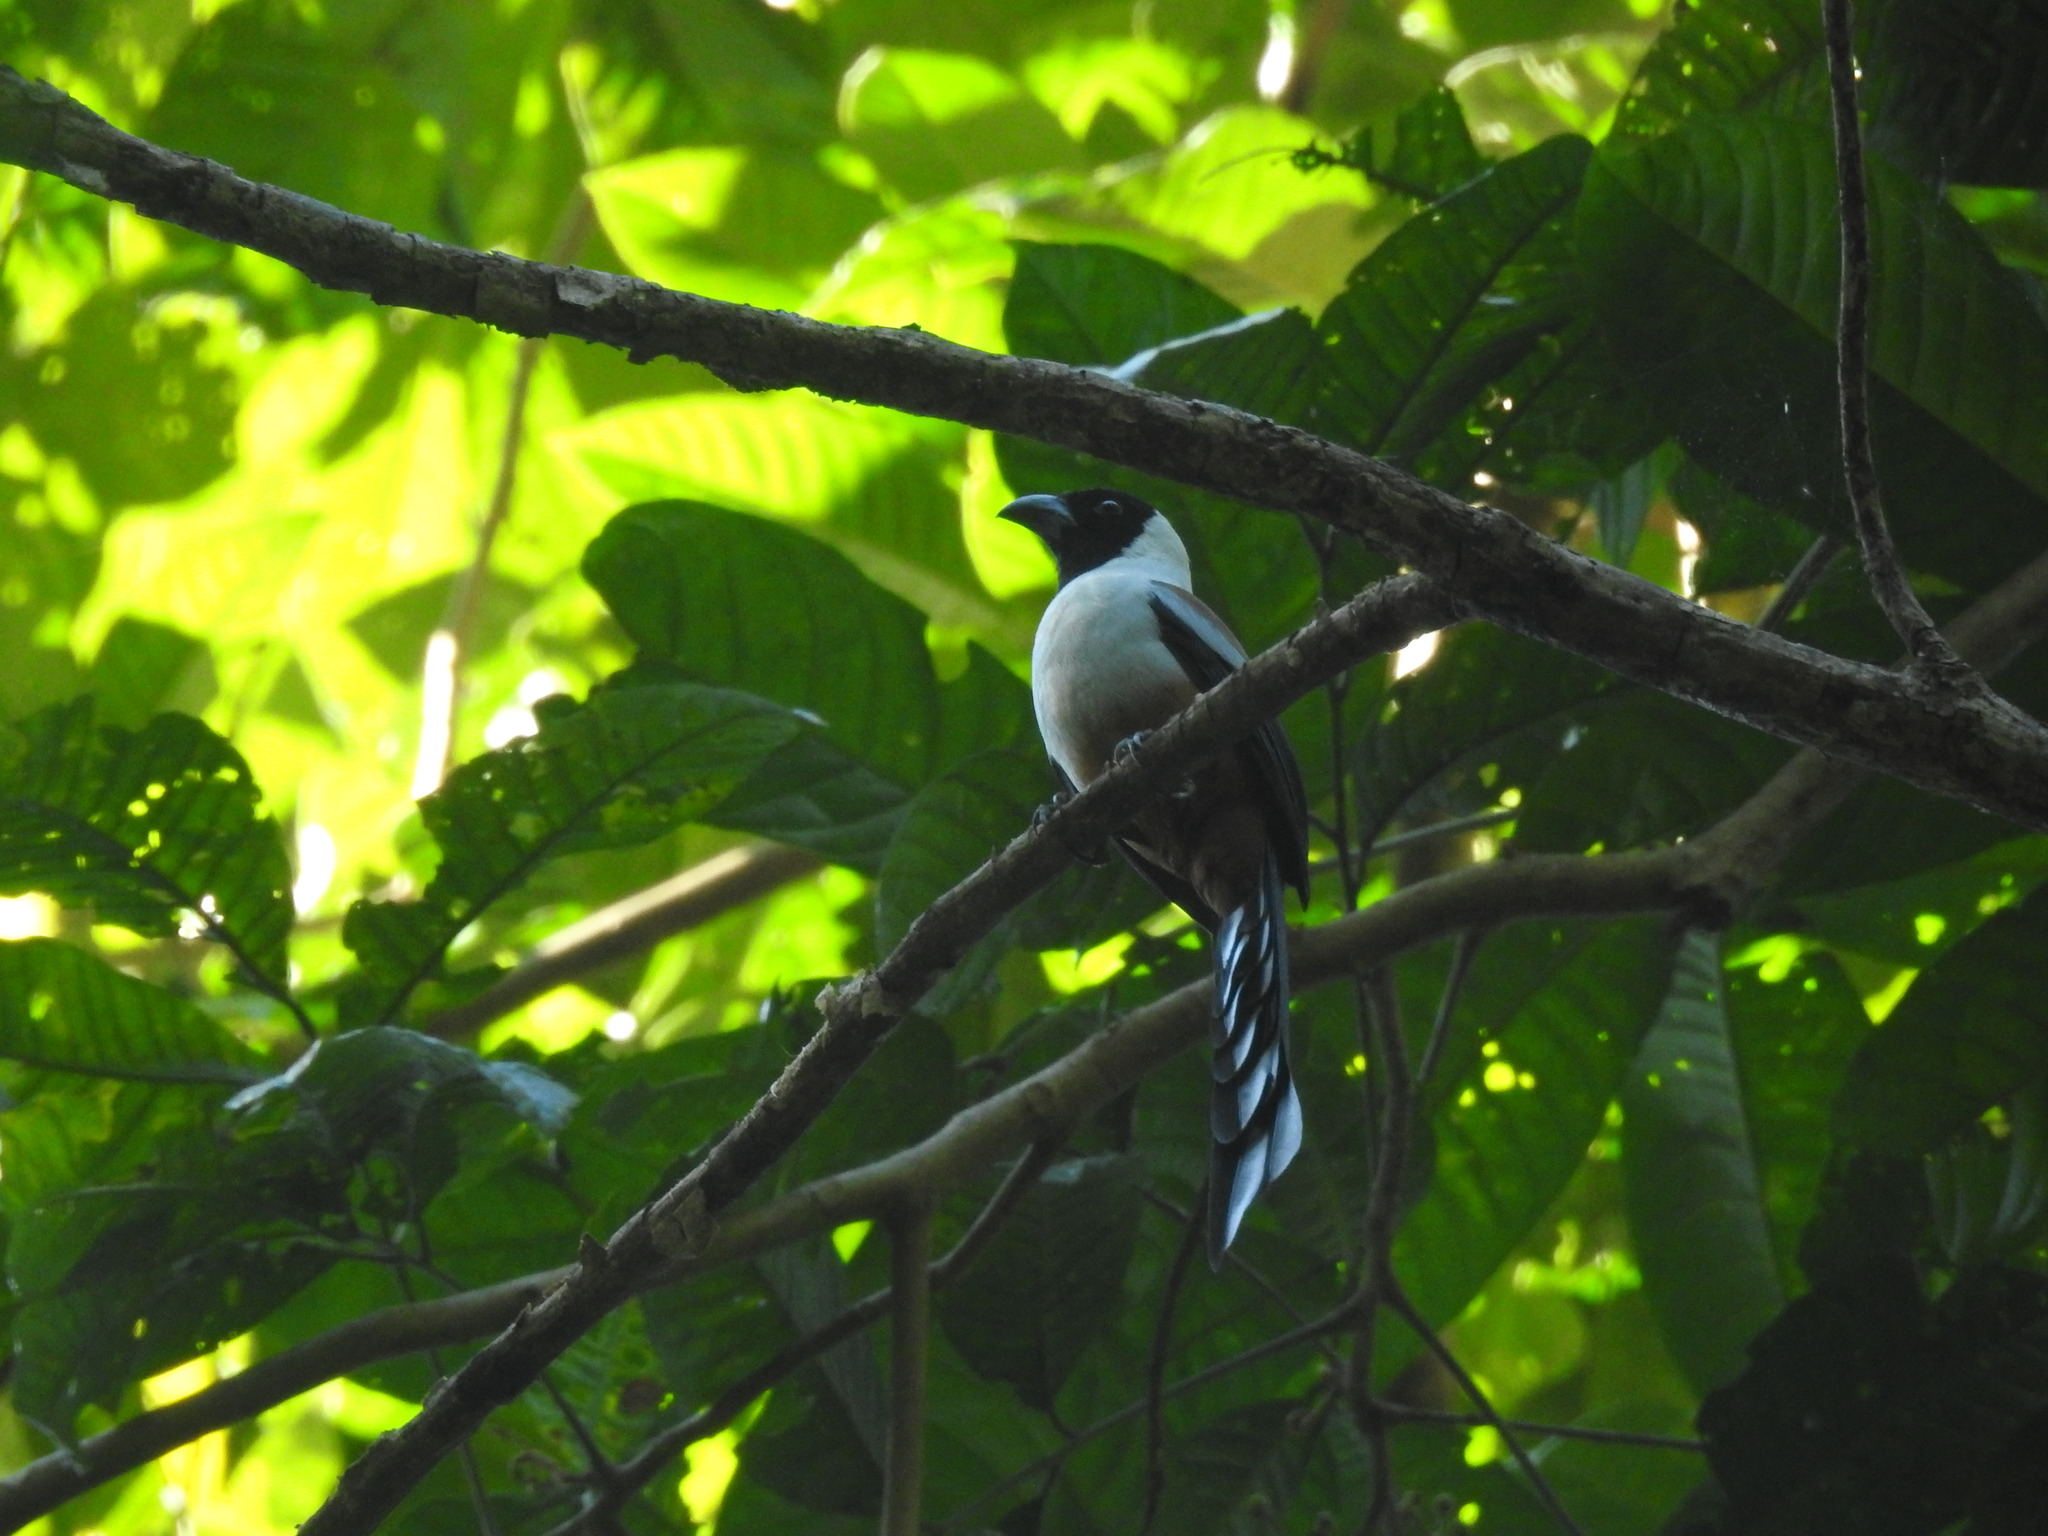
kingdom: Animalia
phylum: Chordata
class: Aves
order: Passeriformes
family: Corvidae
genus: Dendrocitta
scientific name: Dendrocitta frontalis
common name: Collared treepie
